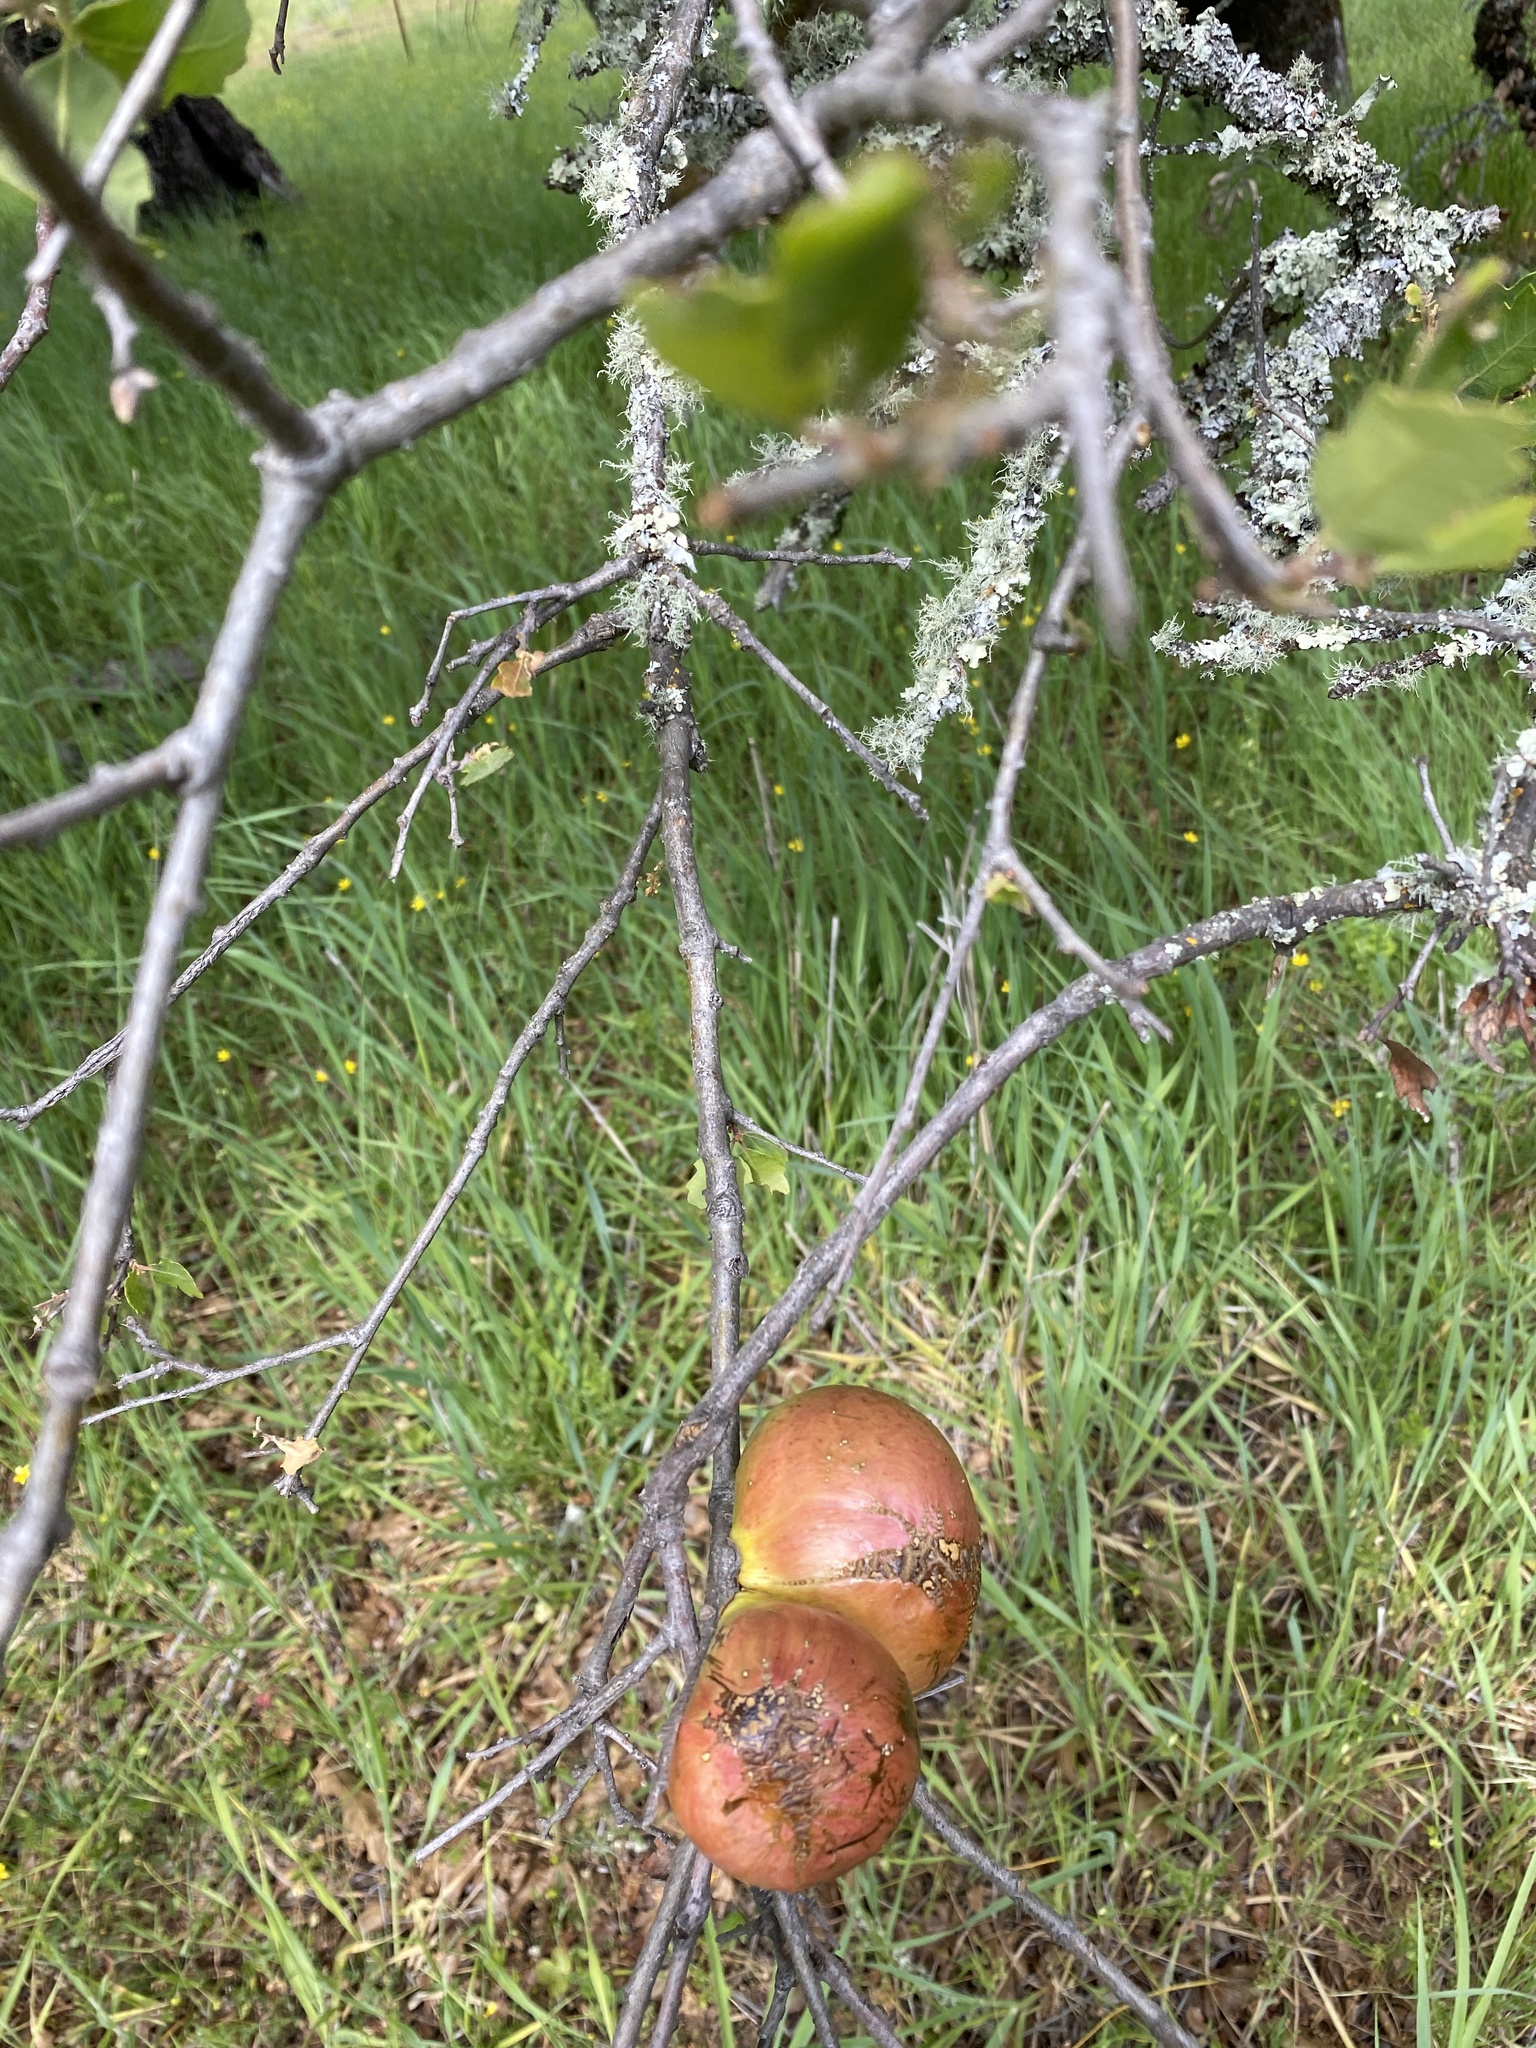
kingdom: Animalia
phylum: Arthropoda
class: Insecta
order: Hymenoptera
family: Cynipidae
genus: Andricus
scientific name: Andricus quercuscalifornicus
